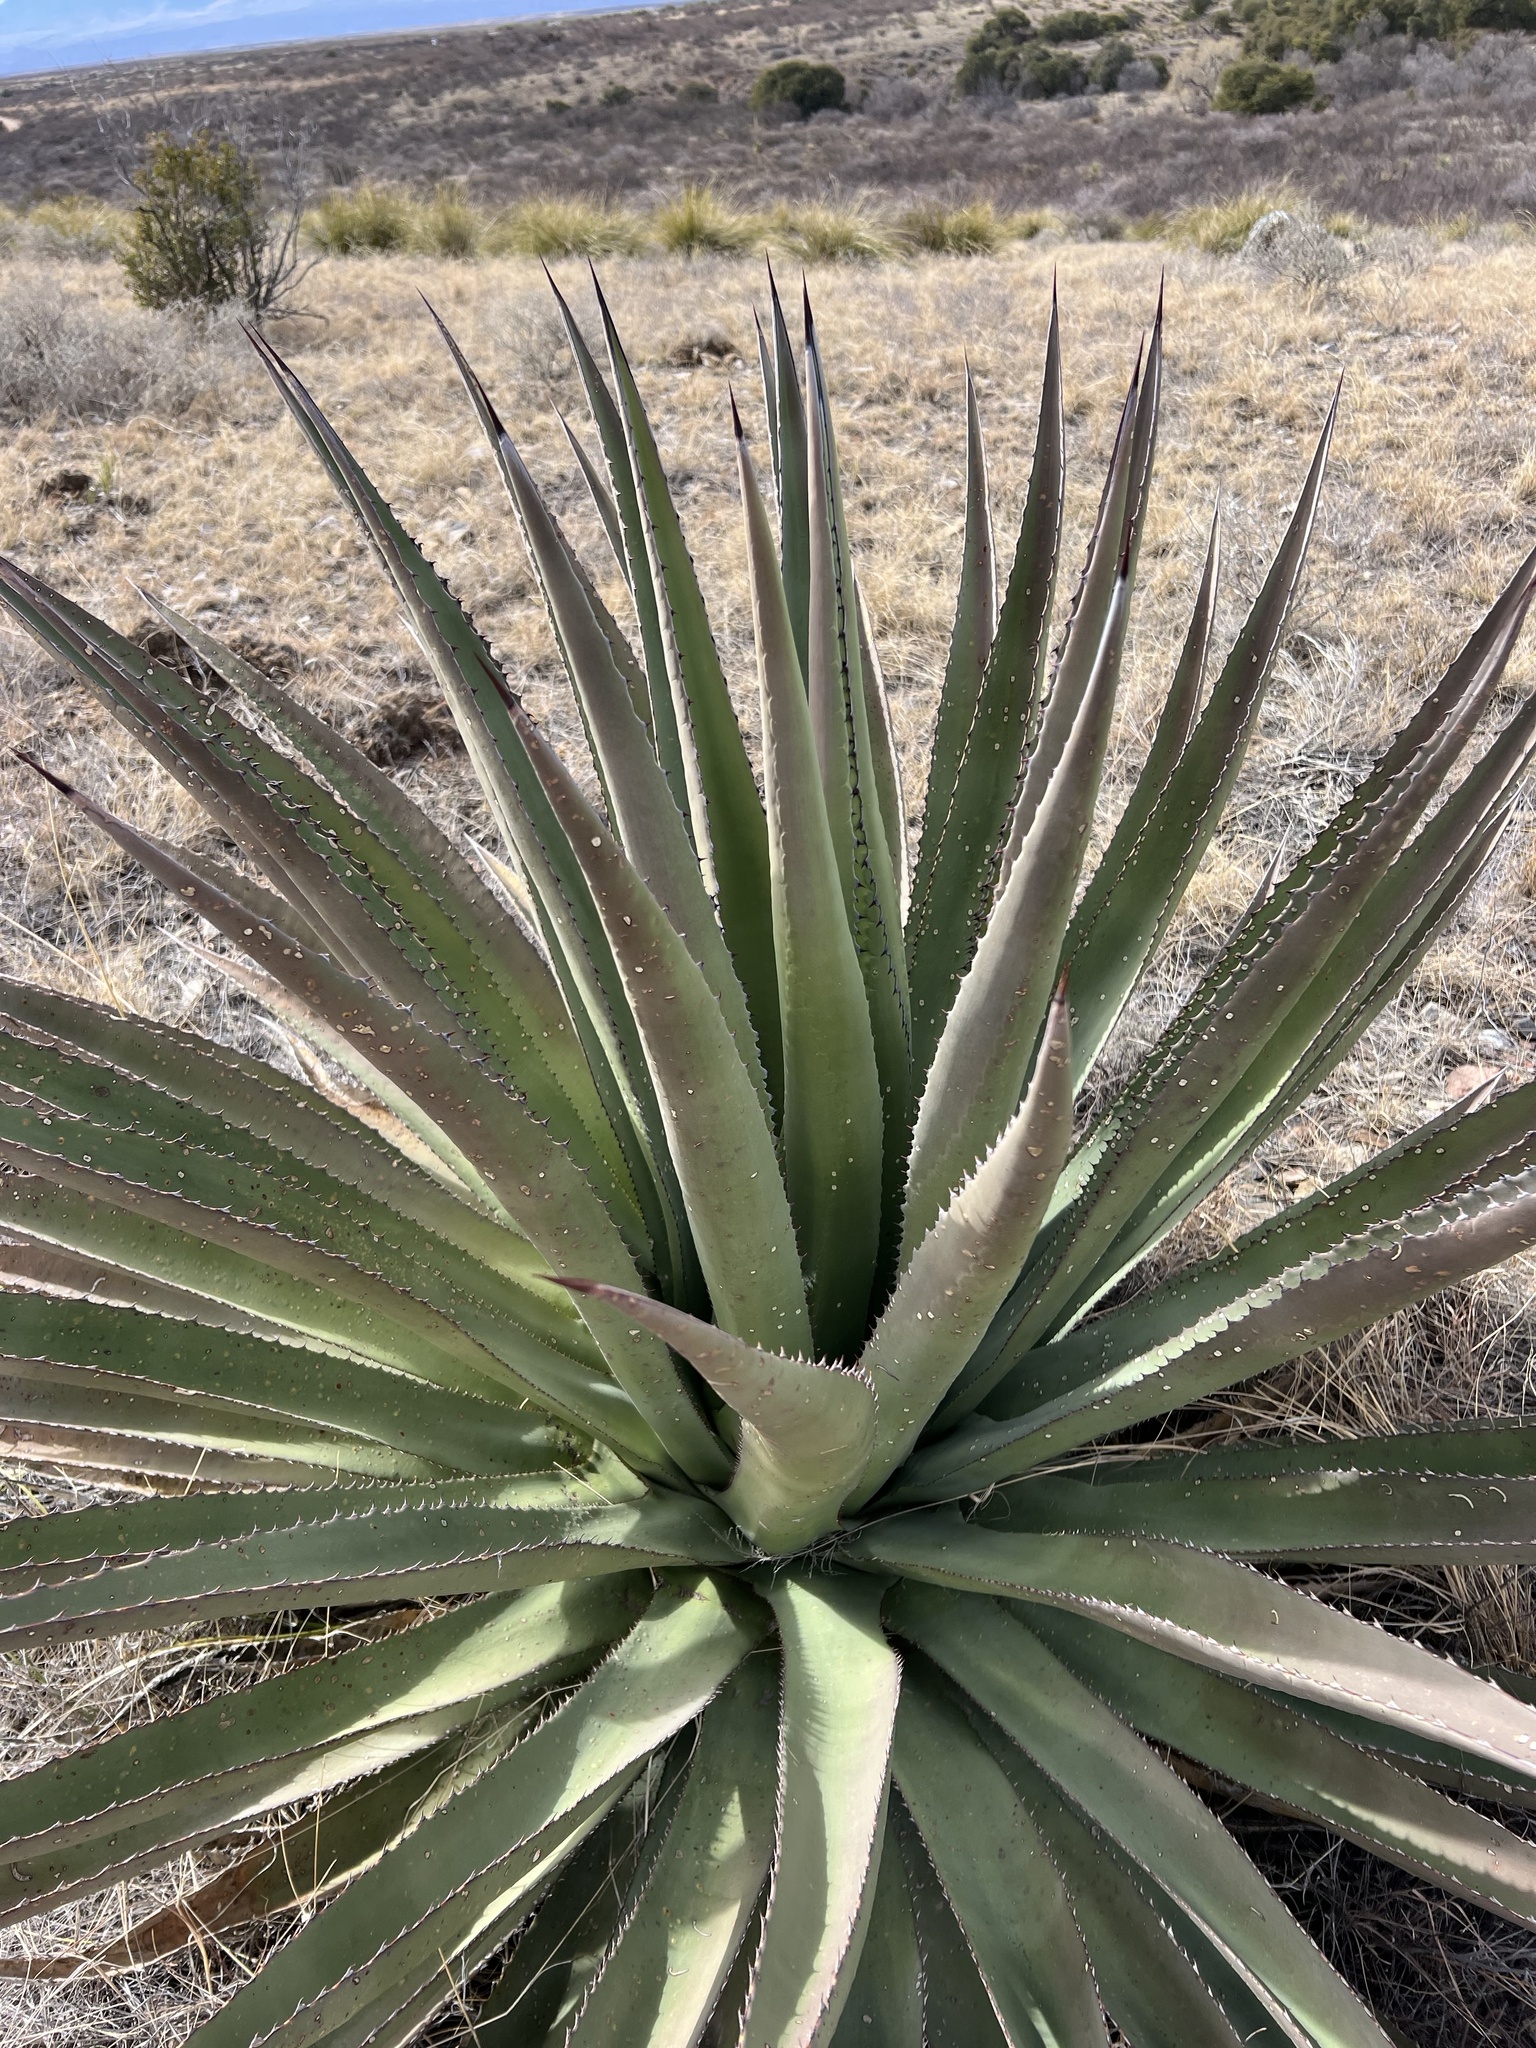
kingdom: Plantae
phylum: Tracheophyta
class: Liliopsida
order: Asparagales
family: Asparagaceae
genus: Agave
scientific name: Agave palmeri
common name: Palmer agave
